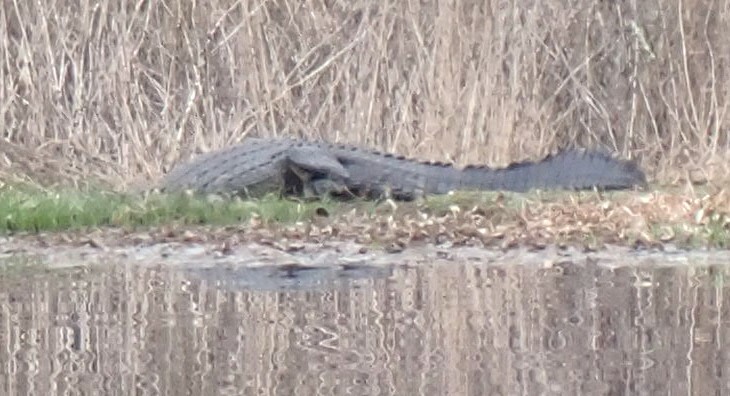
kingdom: Animalia
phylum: Chordata
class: Crocodylia
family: Alligatoridae
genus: Alligator
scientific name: Alligator mississippiensis
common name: American alligator
